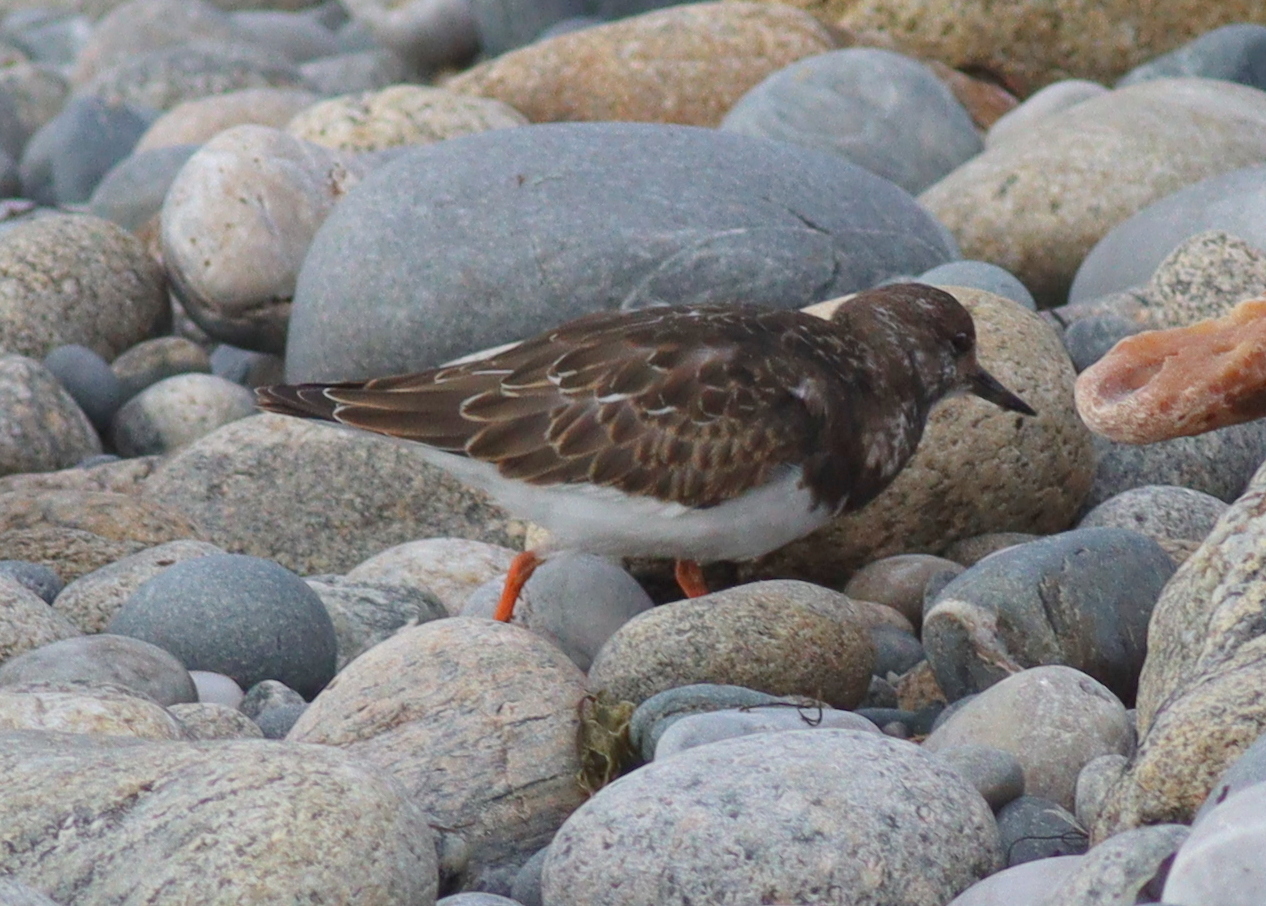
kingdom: Animalia
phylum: Chordata
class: Aves
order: Charadriiformes
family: Scolopacidae
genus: Arenaria
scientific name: Arenaria interpres
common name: Ruddy turnstone
